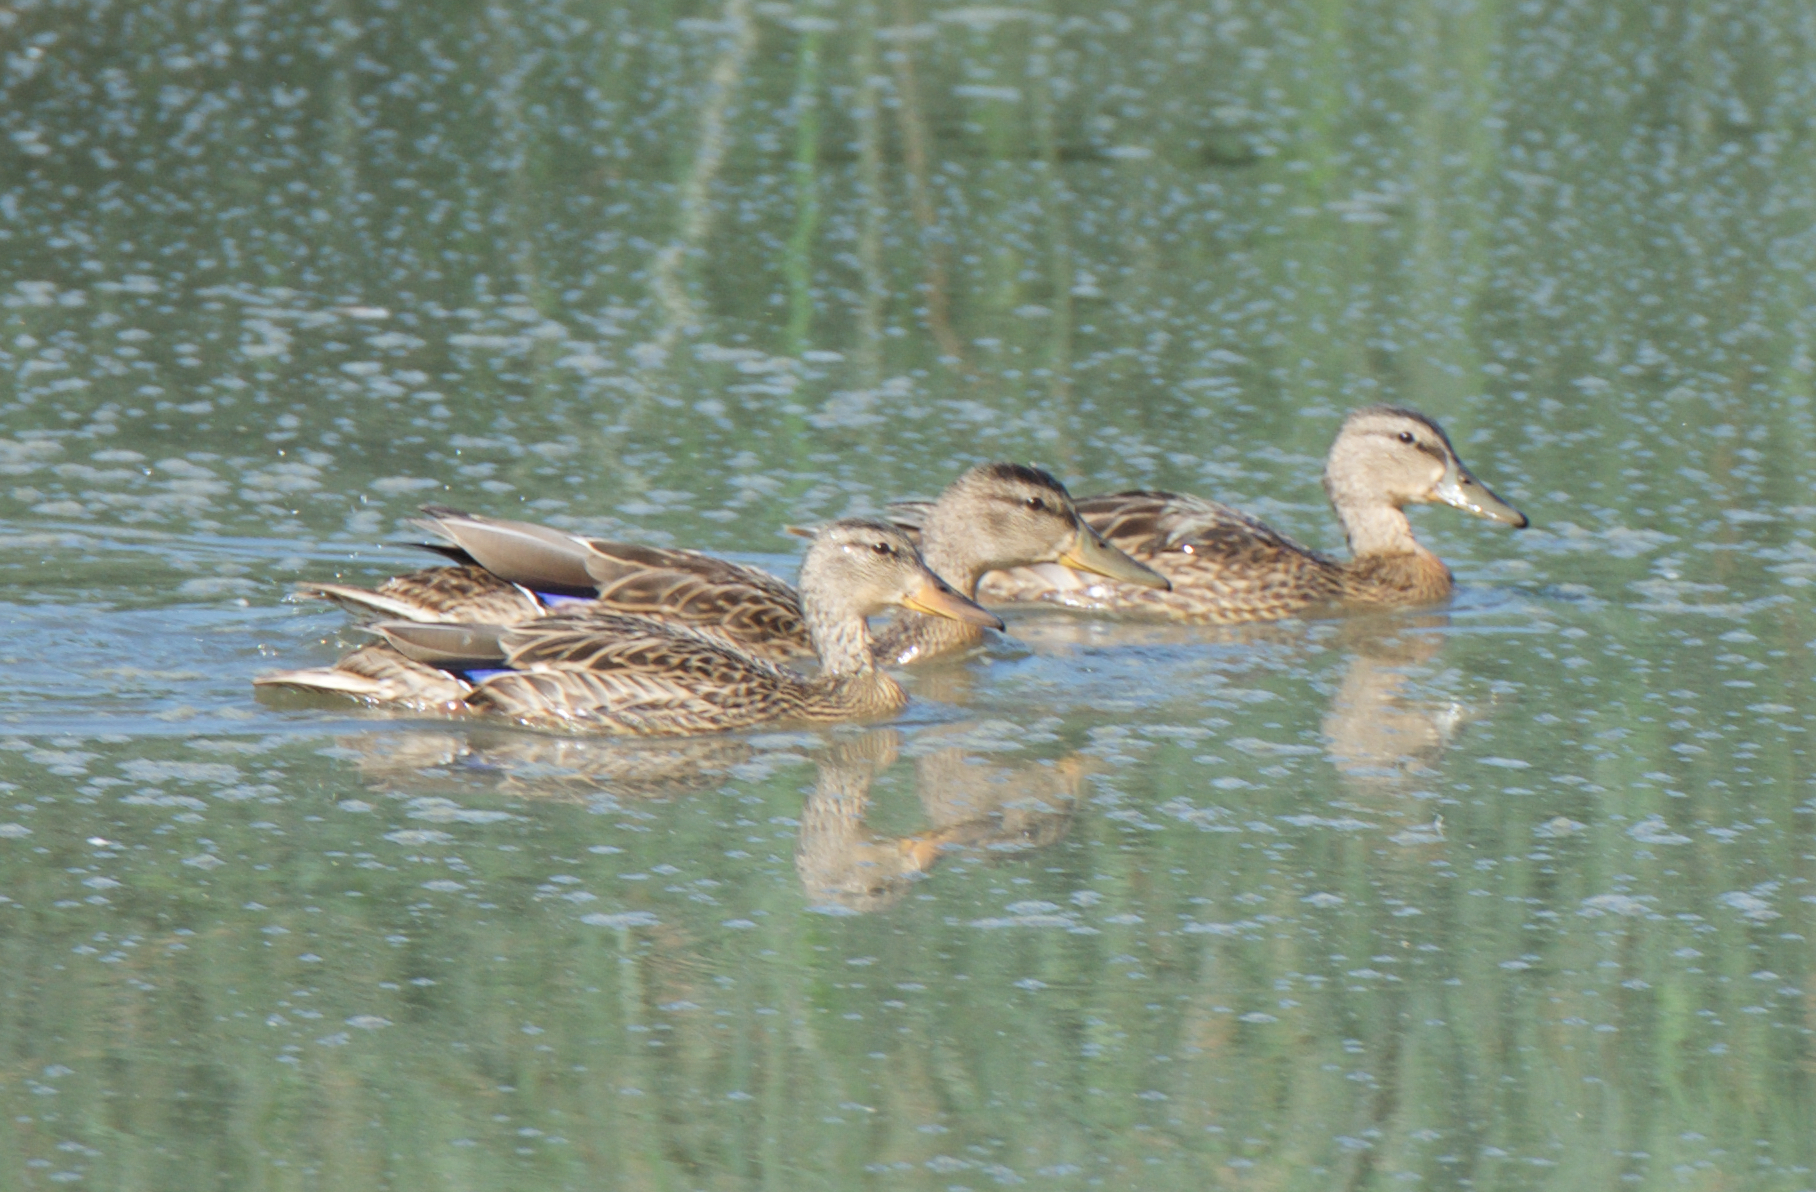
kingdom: Animalia
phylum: Chordata
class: Aves
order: Anseriformes
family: Anatidae
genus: Anas
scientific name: Anas platyrhynchos
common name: Mallard
